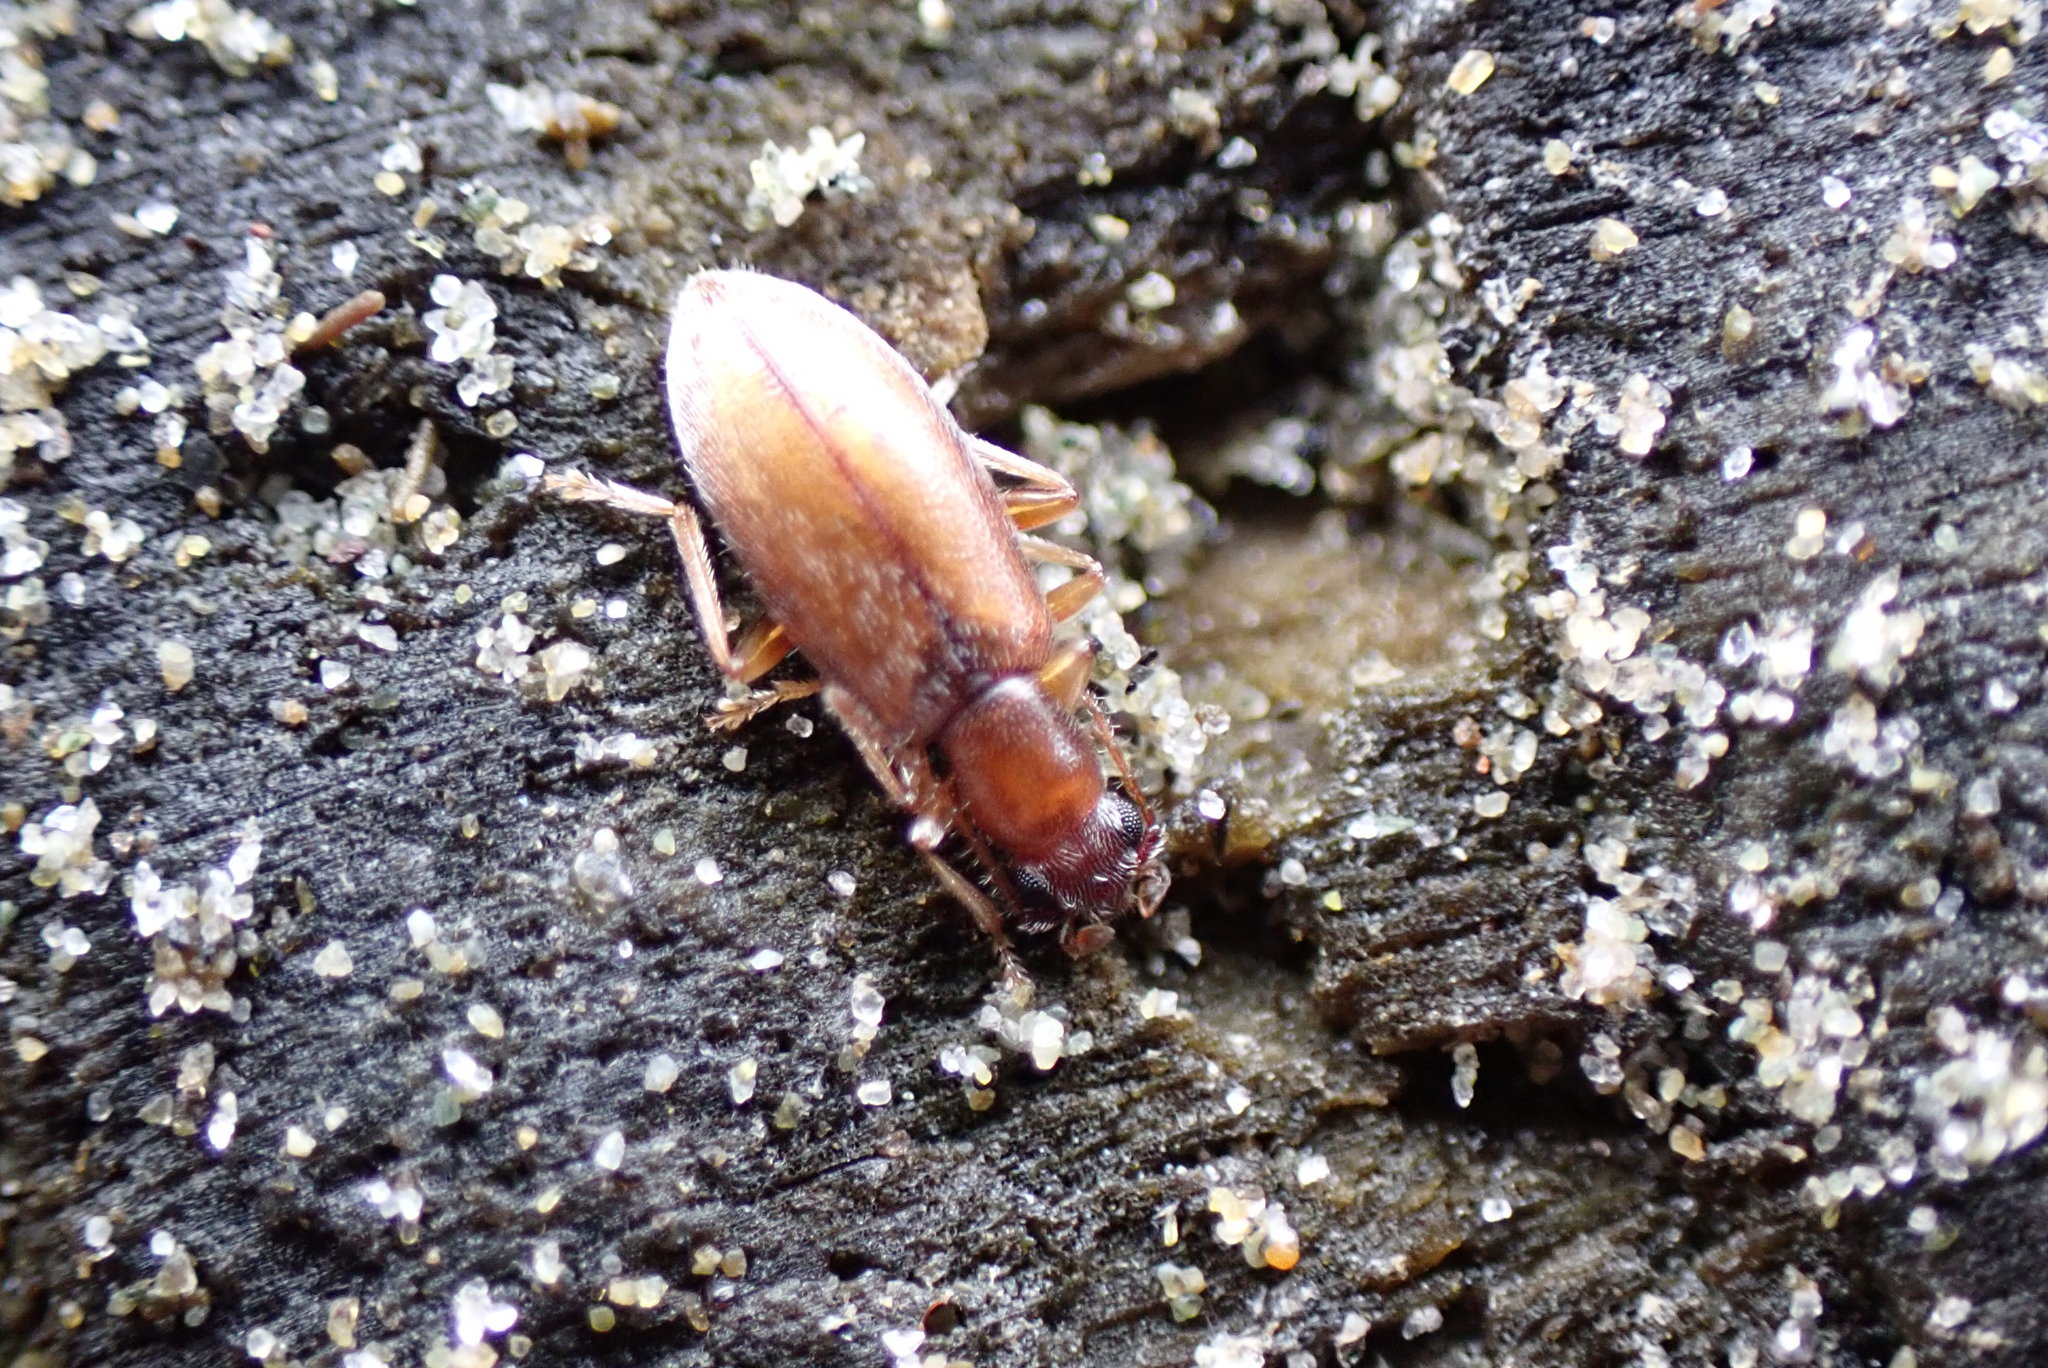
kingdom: Animalia
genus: Lagrioda
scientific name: Lagrioda brounii
